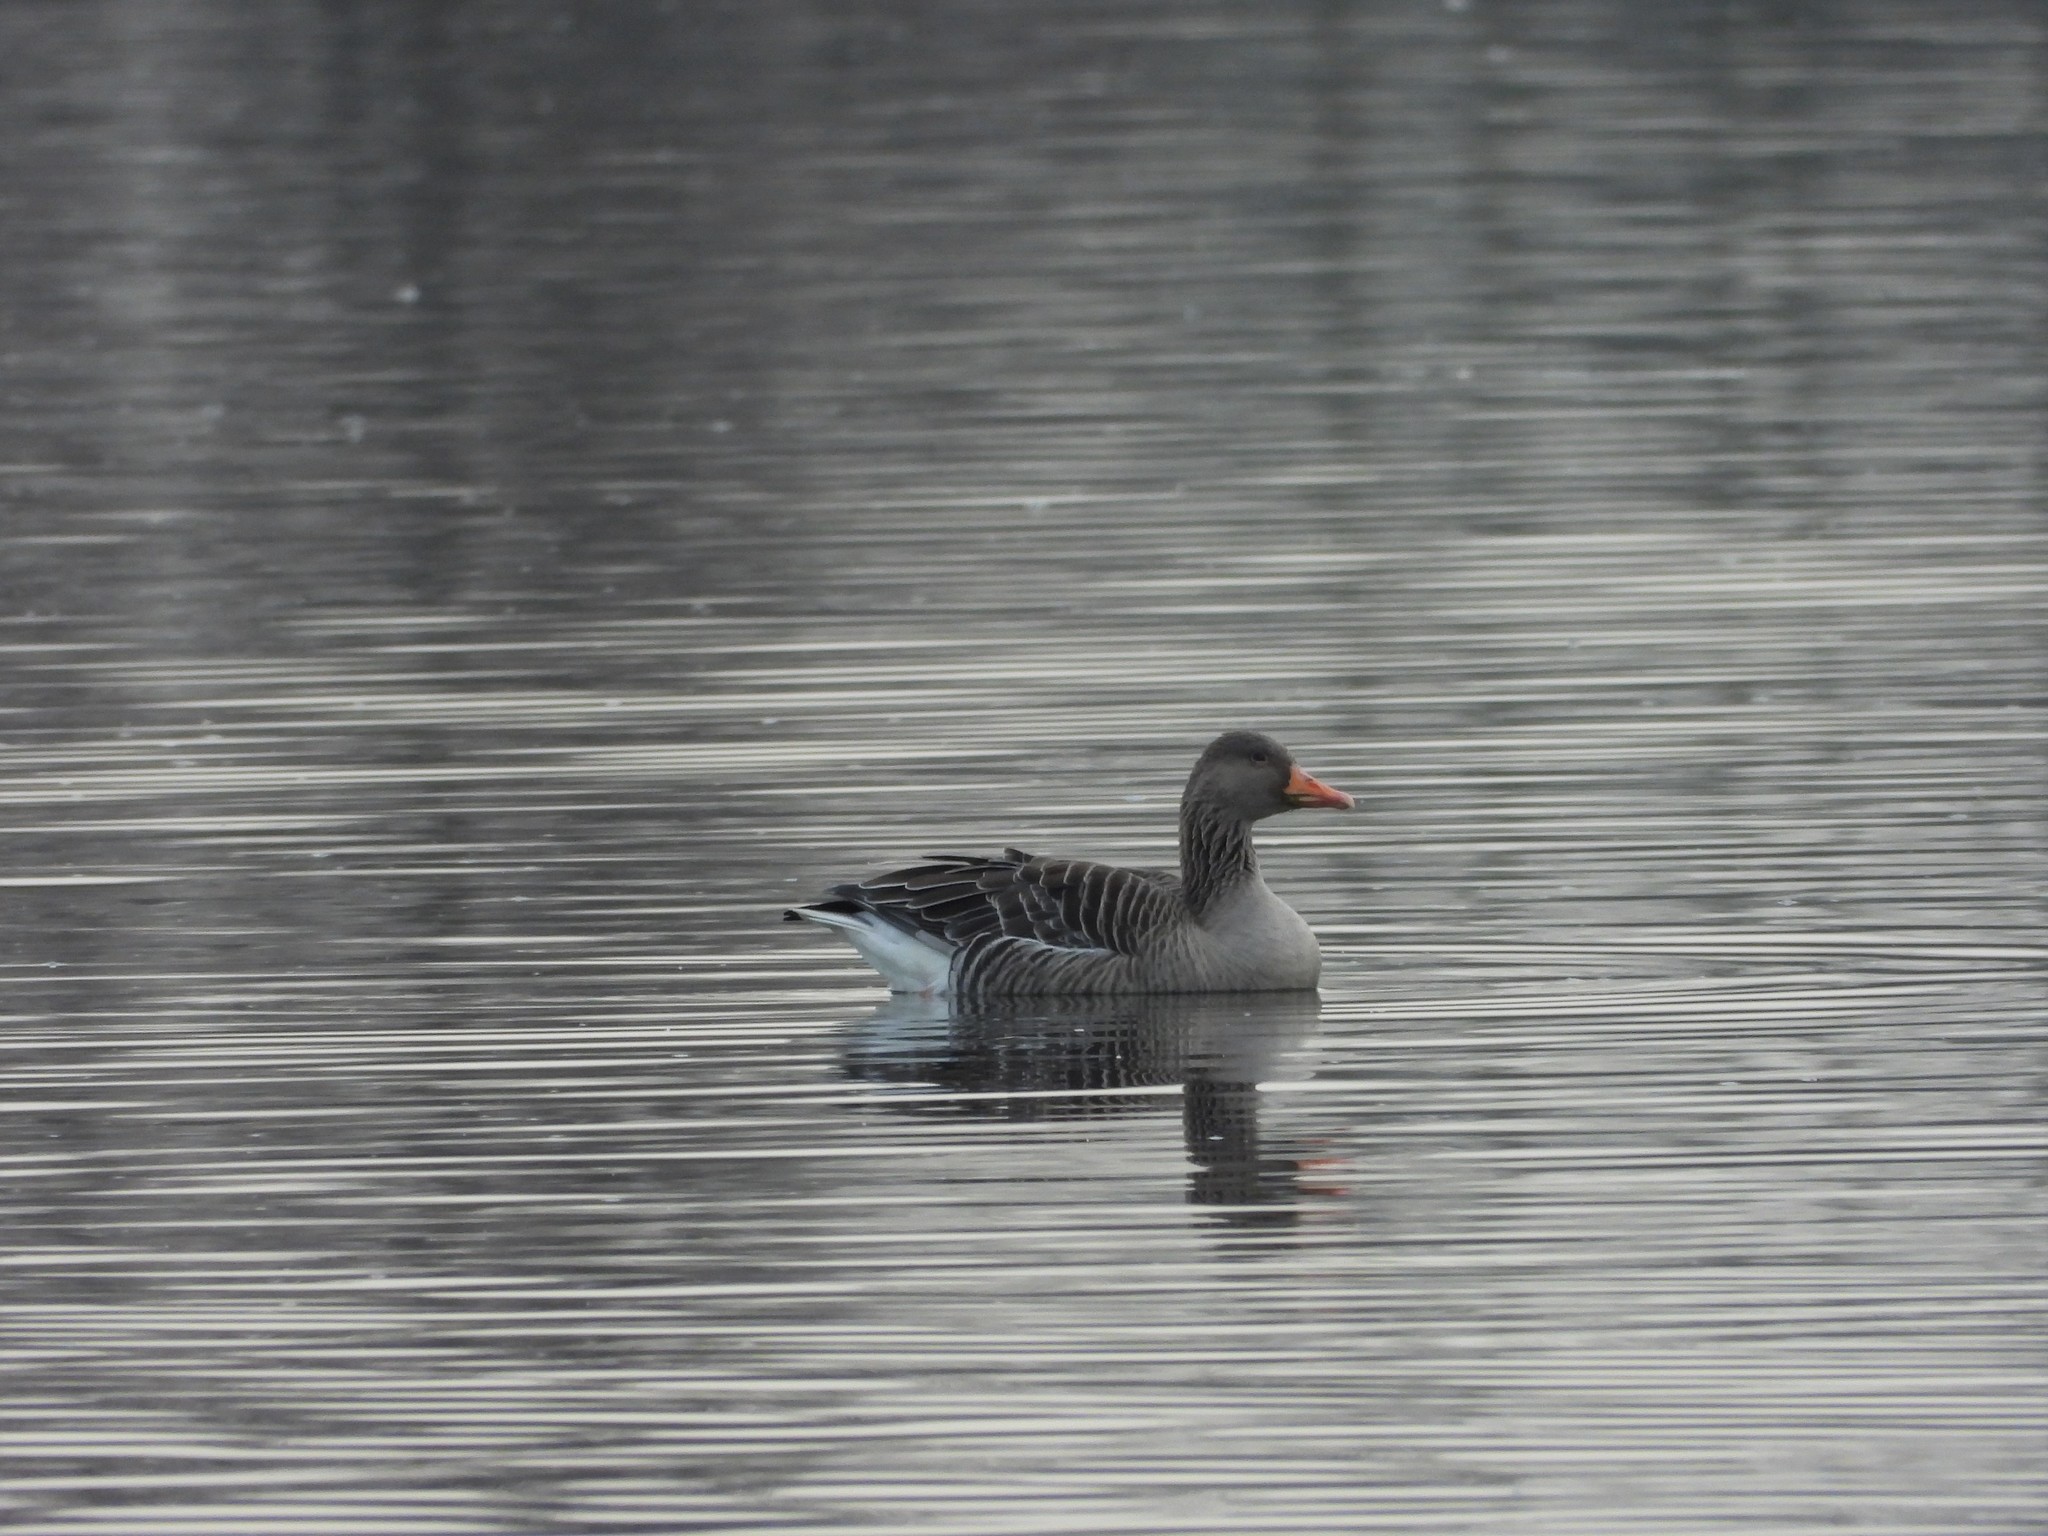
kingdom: Animalia
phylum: Chordata
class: Aves
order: Anseriformes
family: Anatidae
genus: Anser
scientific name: Anser anser
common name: Greylag goose
